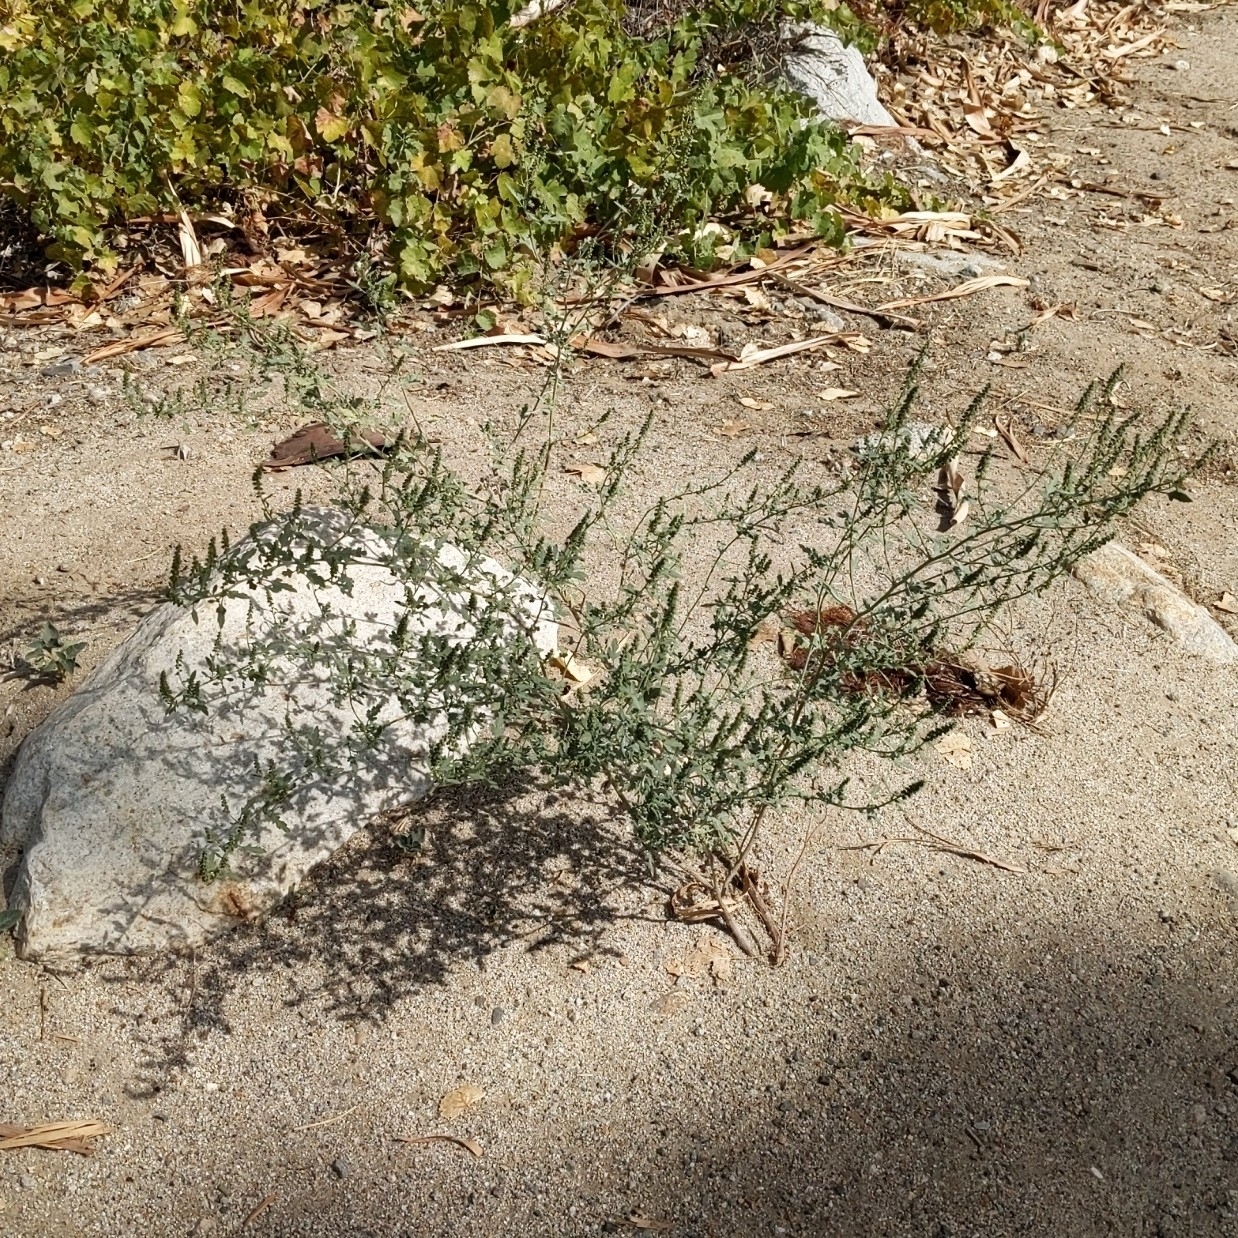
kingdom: Plantae
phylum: Tracheophyta
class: Magnoliopsida
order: Asterales
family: Asteraceae
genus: Ambrosia
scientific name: Ambrosia acanthicarpa
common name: Hooker's bur ragweed
